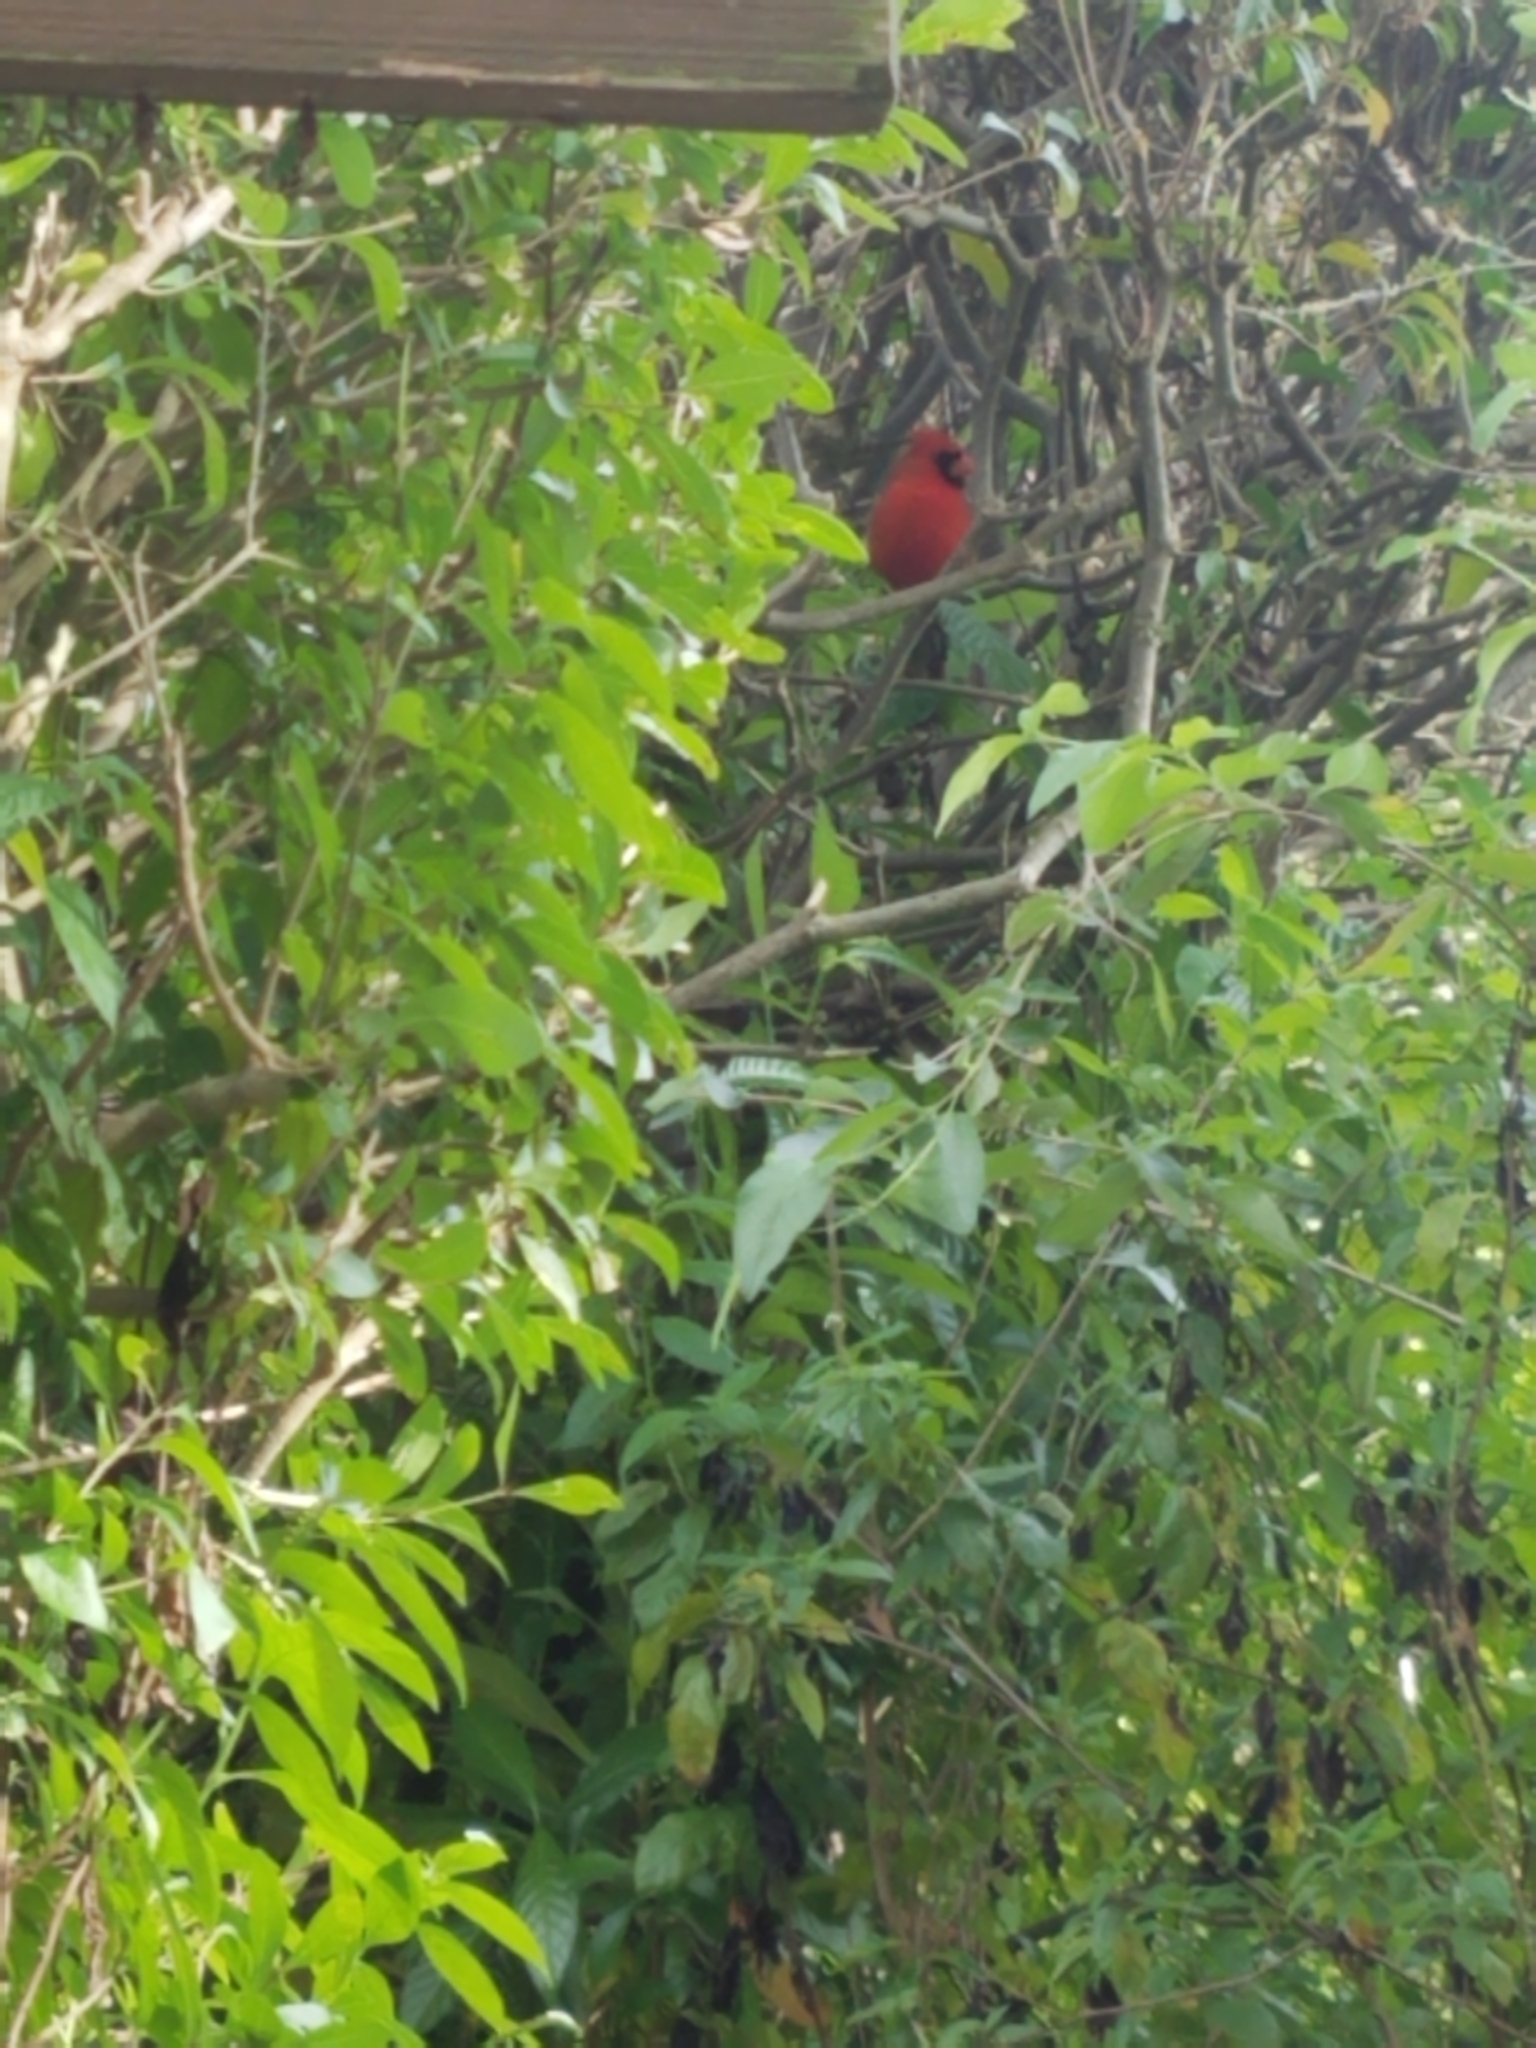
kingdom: Animalia
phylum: Chordata
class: Aves
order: Passeriformes
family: Cardinalidae
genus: Cardinalis
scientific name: Cardinalis cardinalis
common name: Northern cardinal
